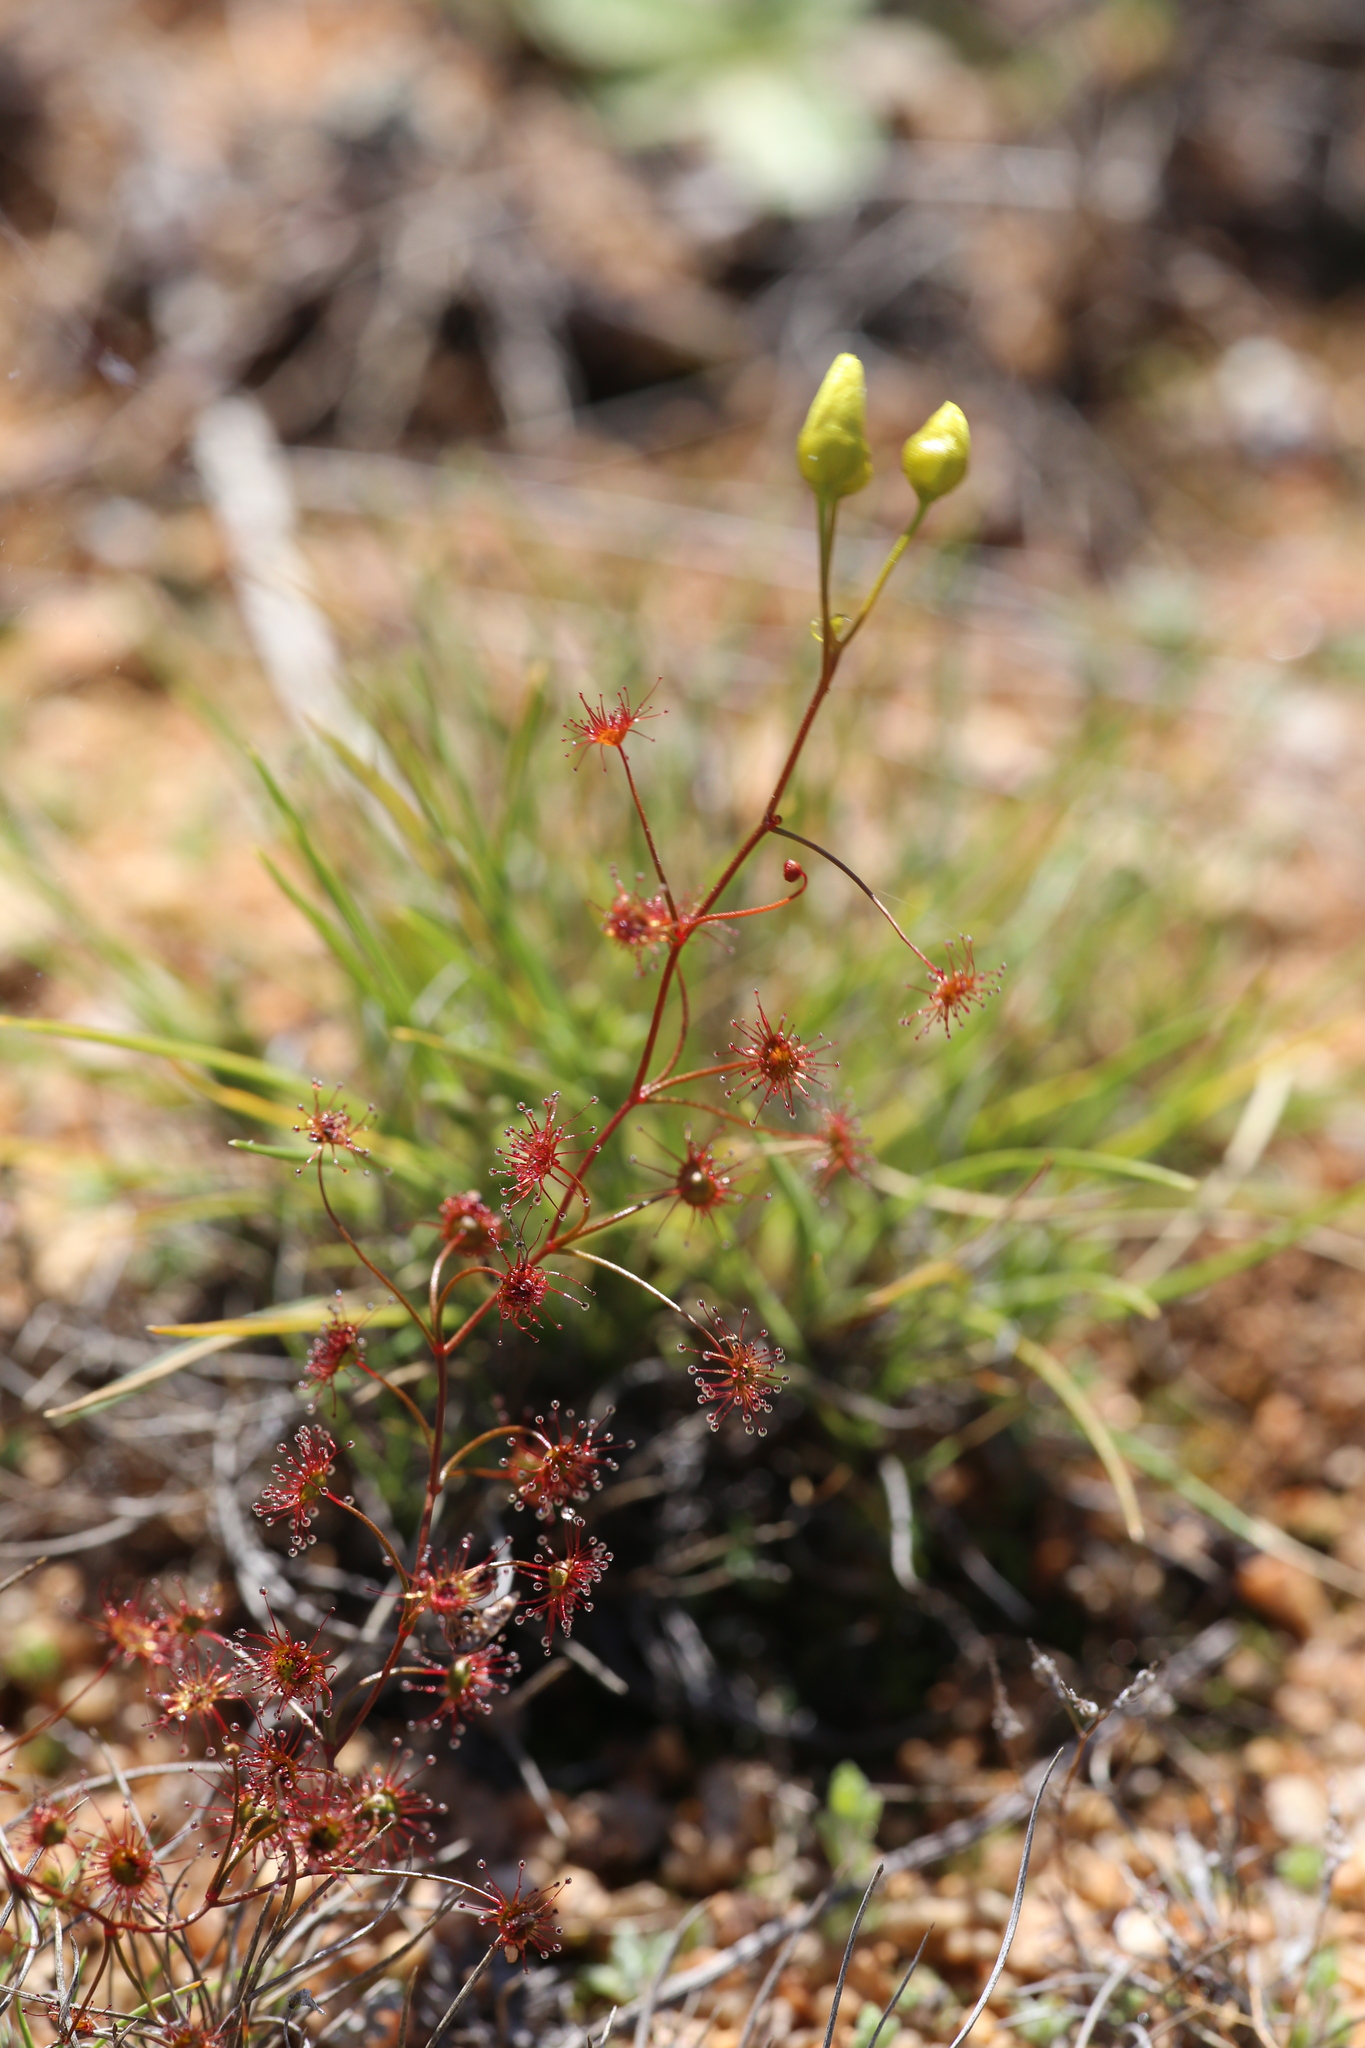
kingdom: Plantae
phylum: Tracheophyta
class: Magnoliopsida
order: Caryophyllales
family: Droseraceae
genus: Drosera
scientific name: Drosera moorei
